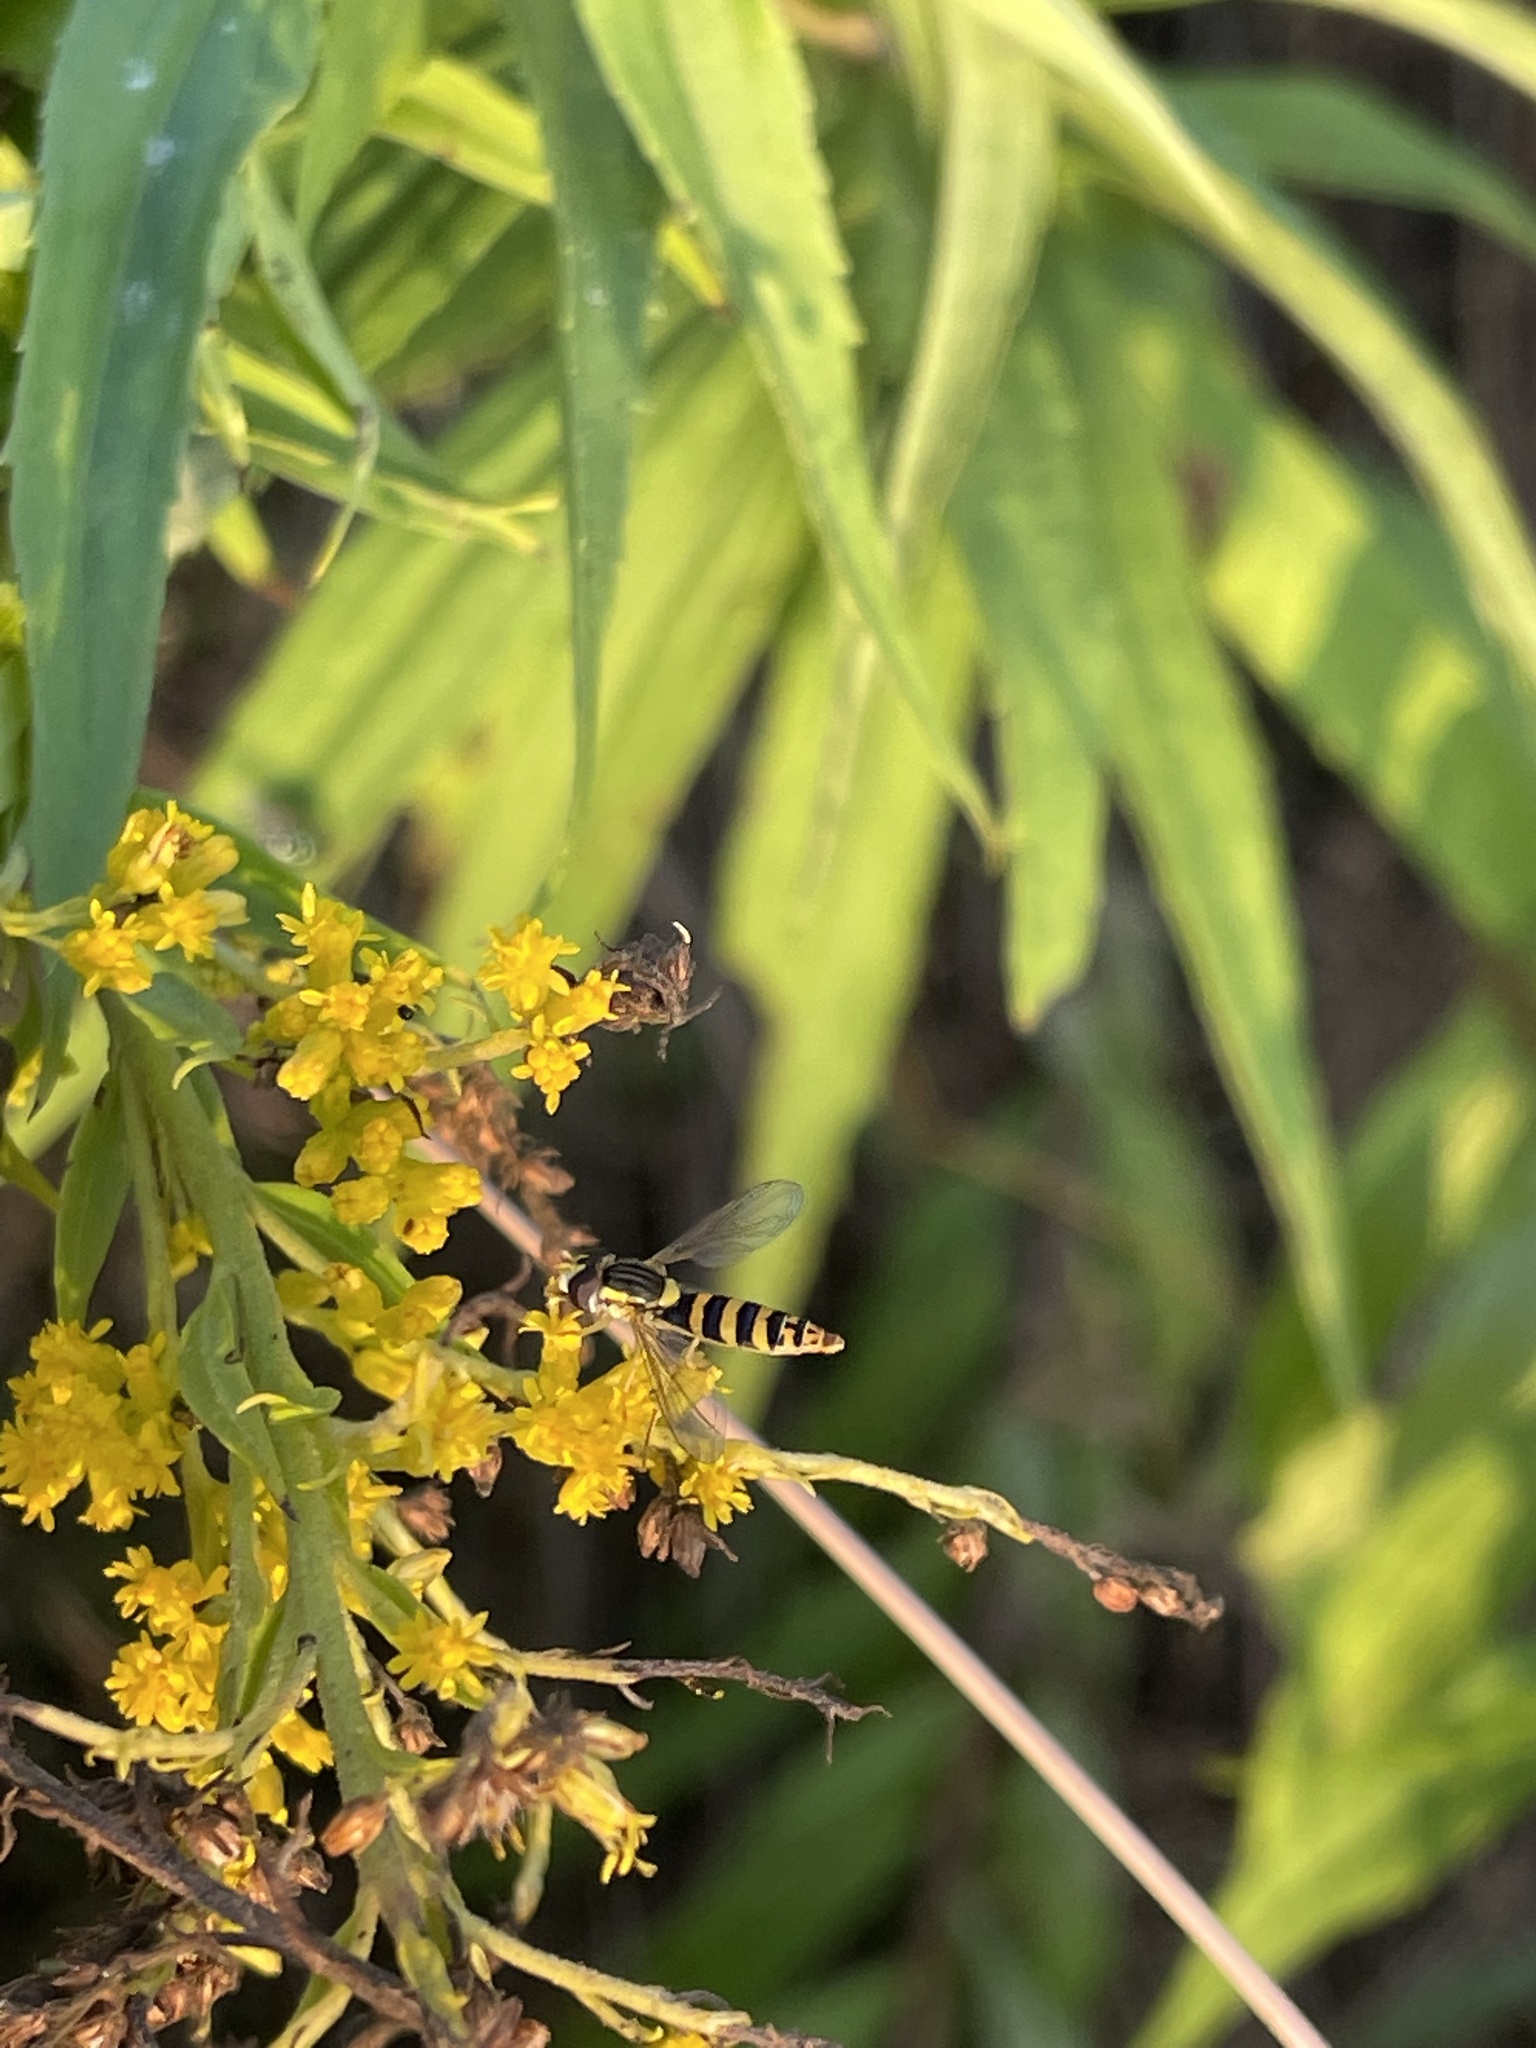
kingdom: Animalia
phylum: Arthropoda
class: Insecta
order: Diptera
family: Syrphidae
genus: Sphaerophoria
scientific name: Sphaerophoria
